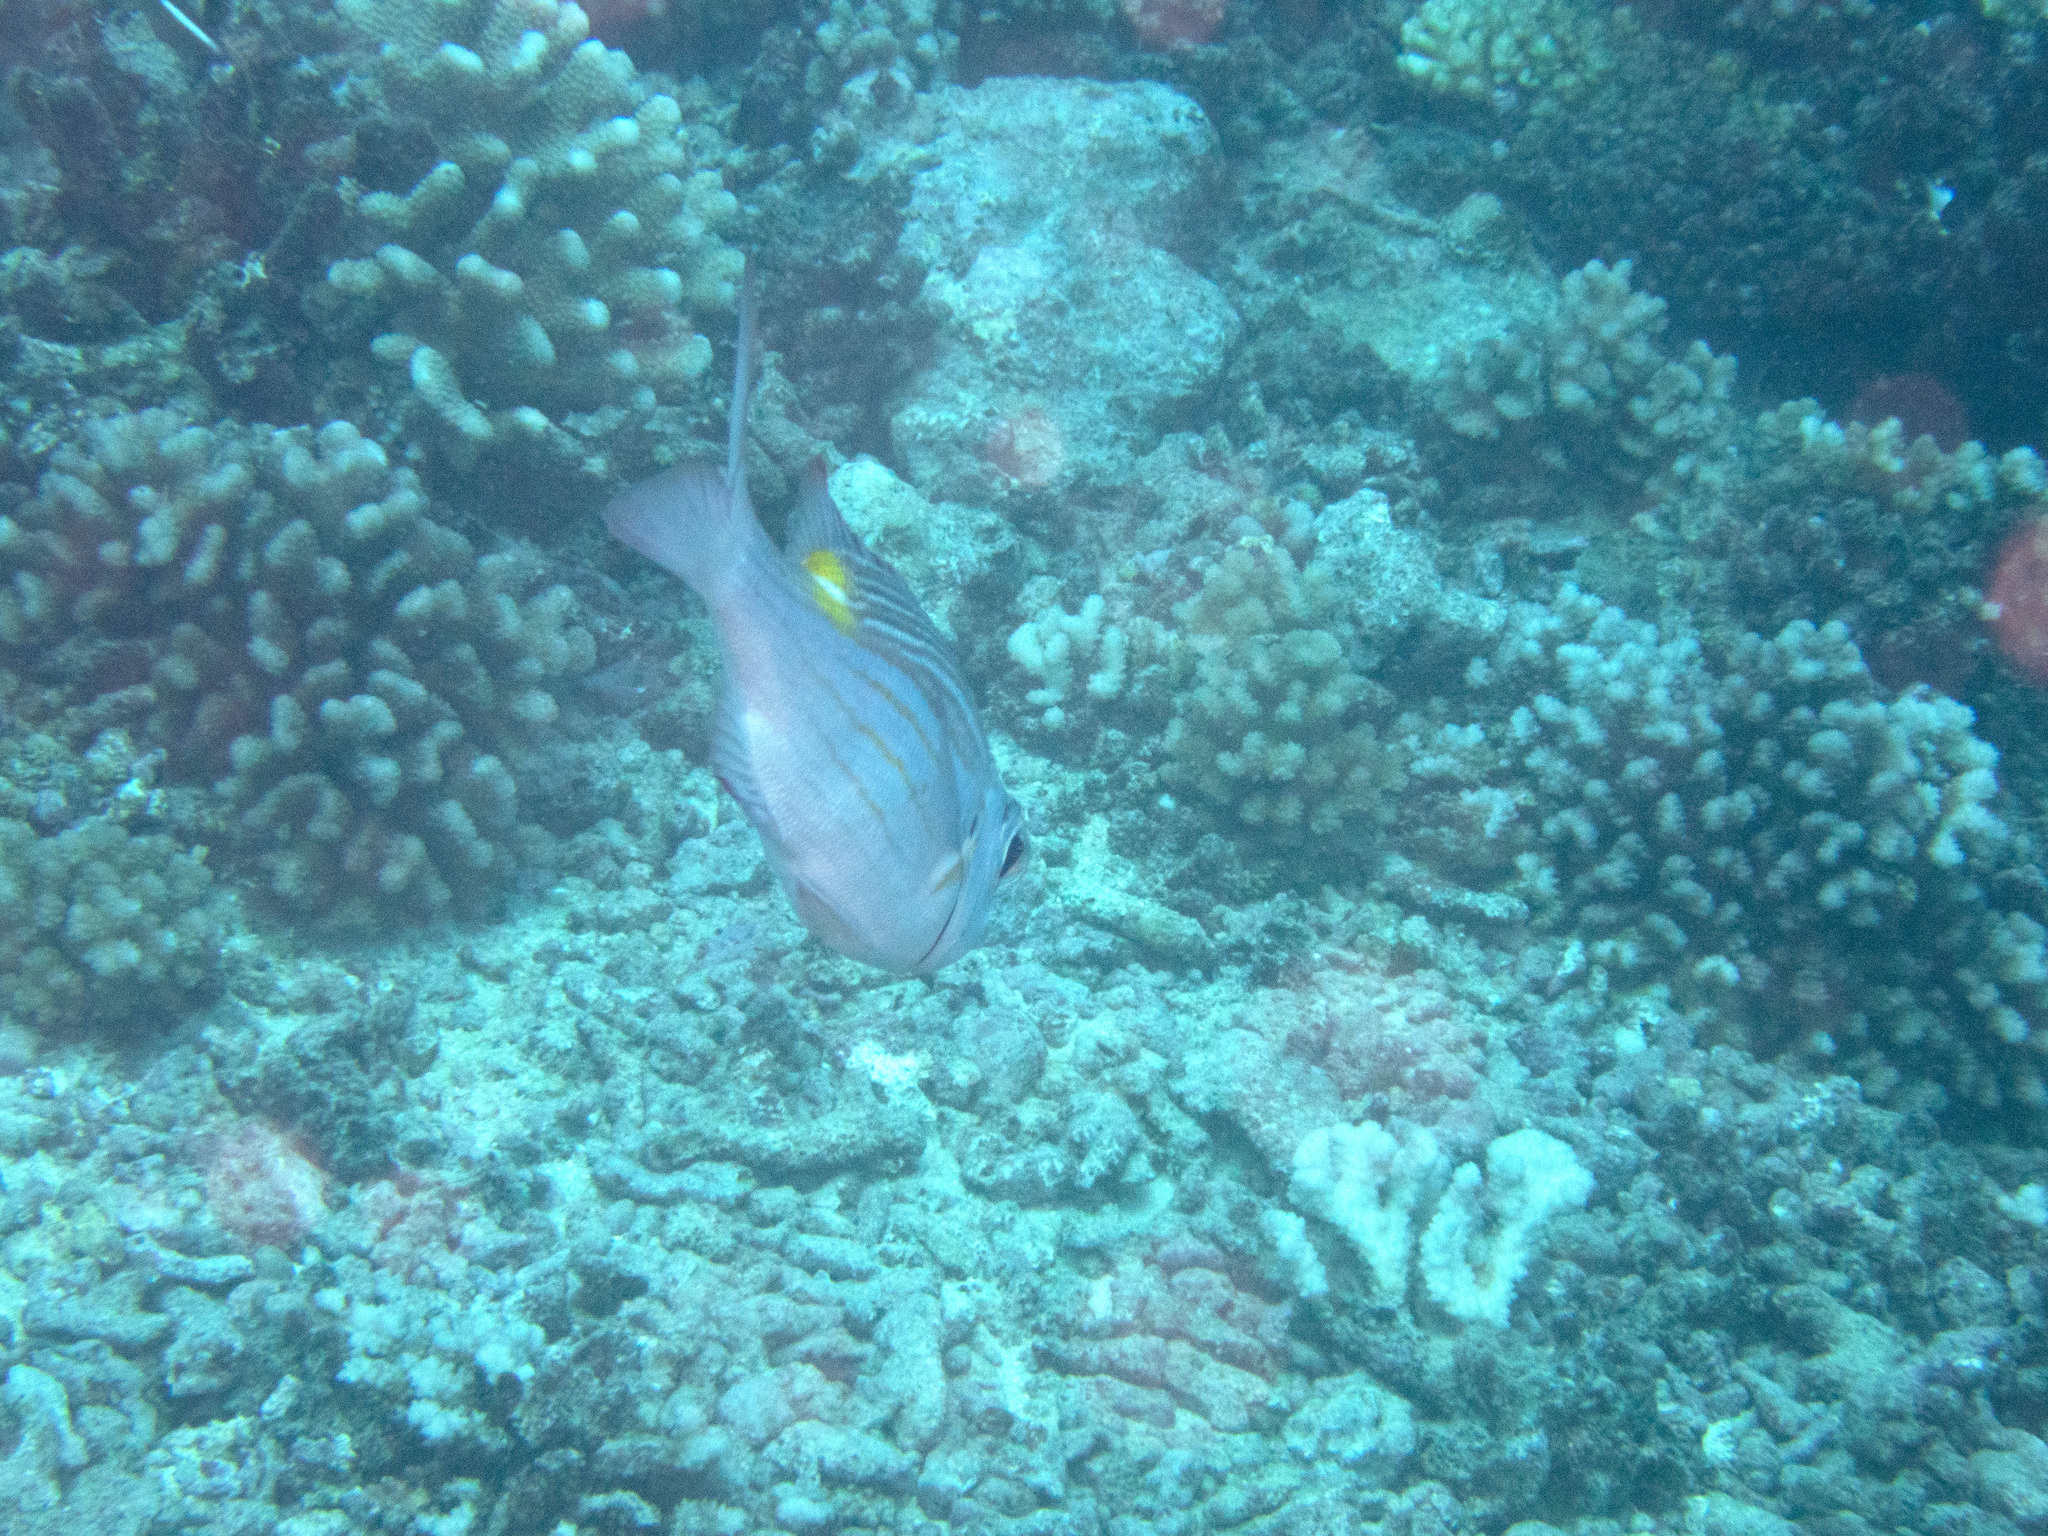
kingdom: Animalia
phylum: Chordata
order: Perciformes
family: Lethrinidae
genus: Gnathodentex
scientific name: Gnathodentex aureolineatus
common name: Gold-lined sea bream
